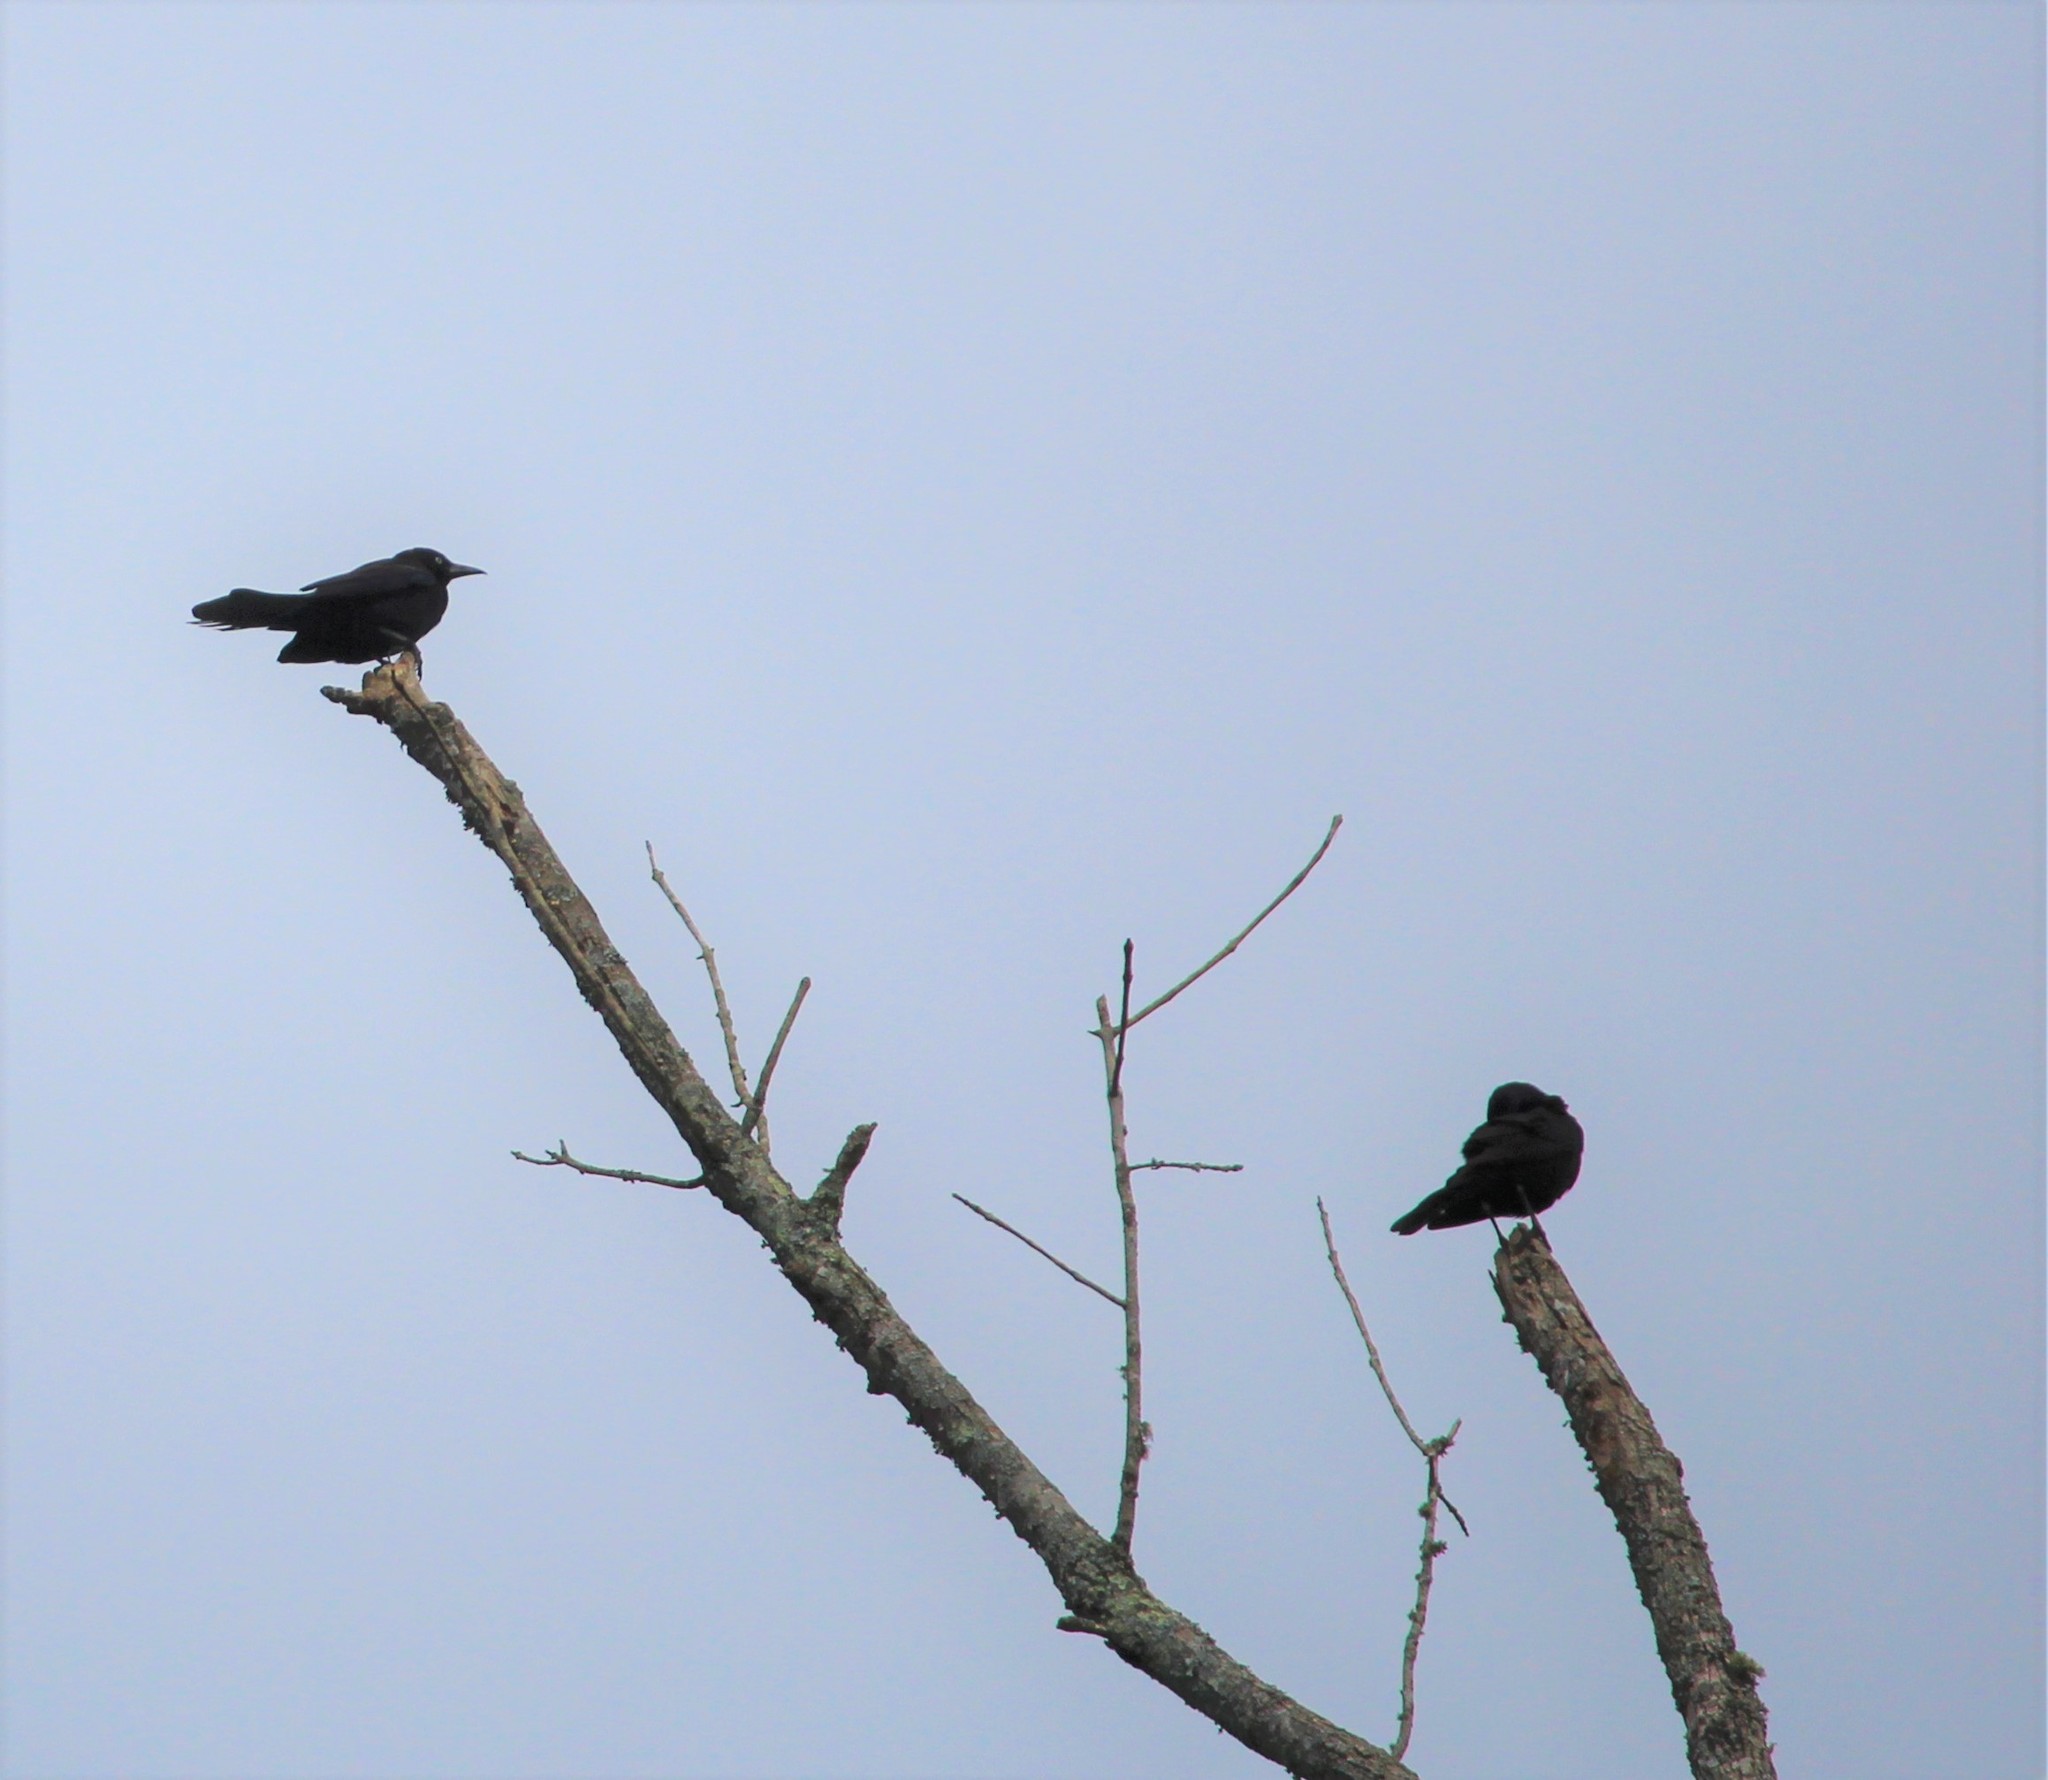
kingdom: Animalia
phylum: Chordata
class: Aves
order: Passeriformes
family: Icteridae
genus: Quiscalus
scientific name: Quiscalus quiscula
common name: Common grackle
